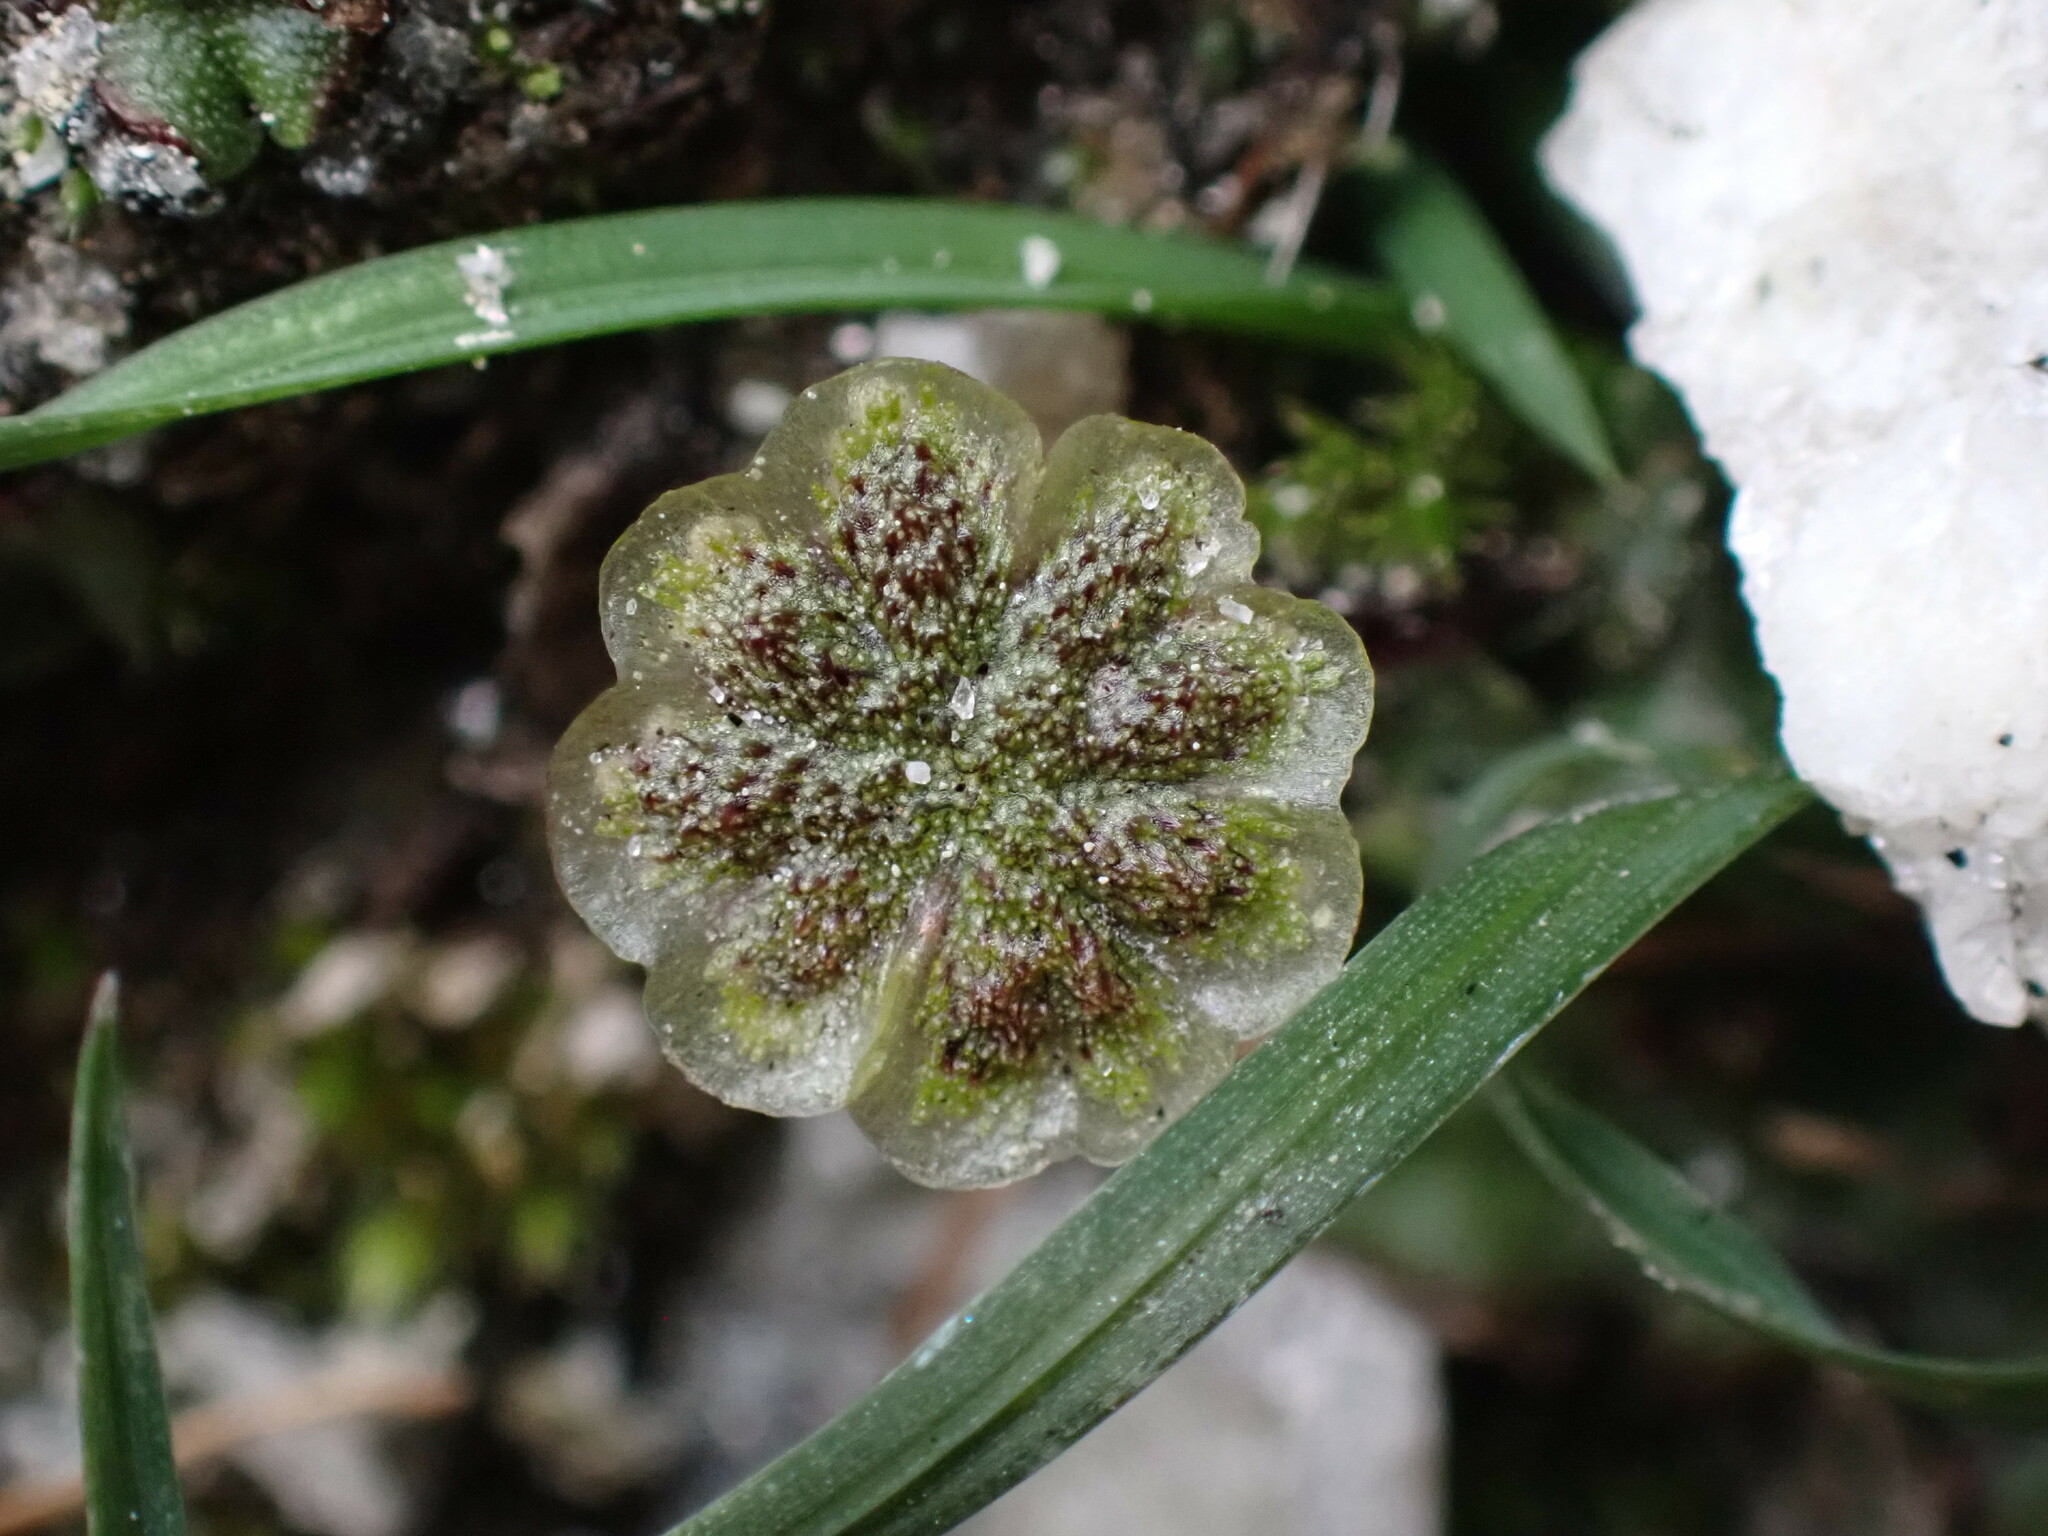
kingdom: Plantae
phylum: Marchantiophyta
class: Marchantiopsida
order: Marchantiales
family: Marchantiaceae
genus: Marchantia
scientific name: Marchantia polymorpha
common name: Common liverwort
